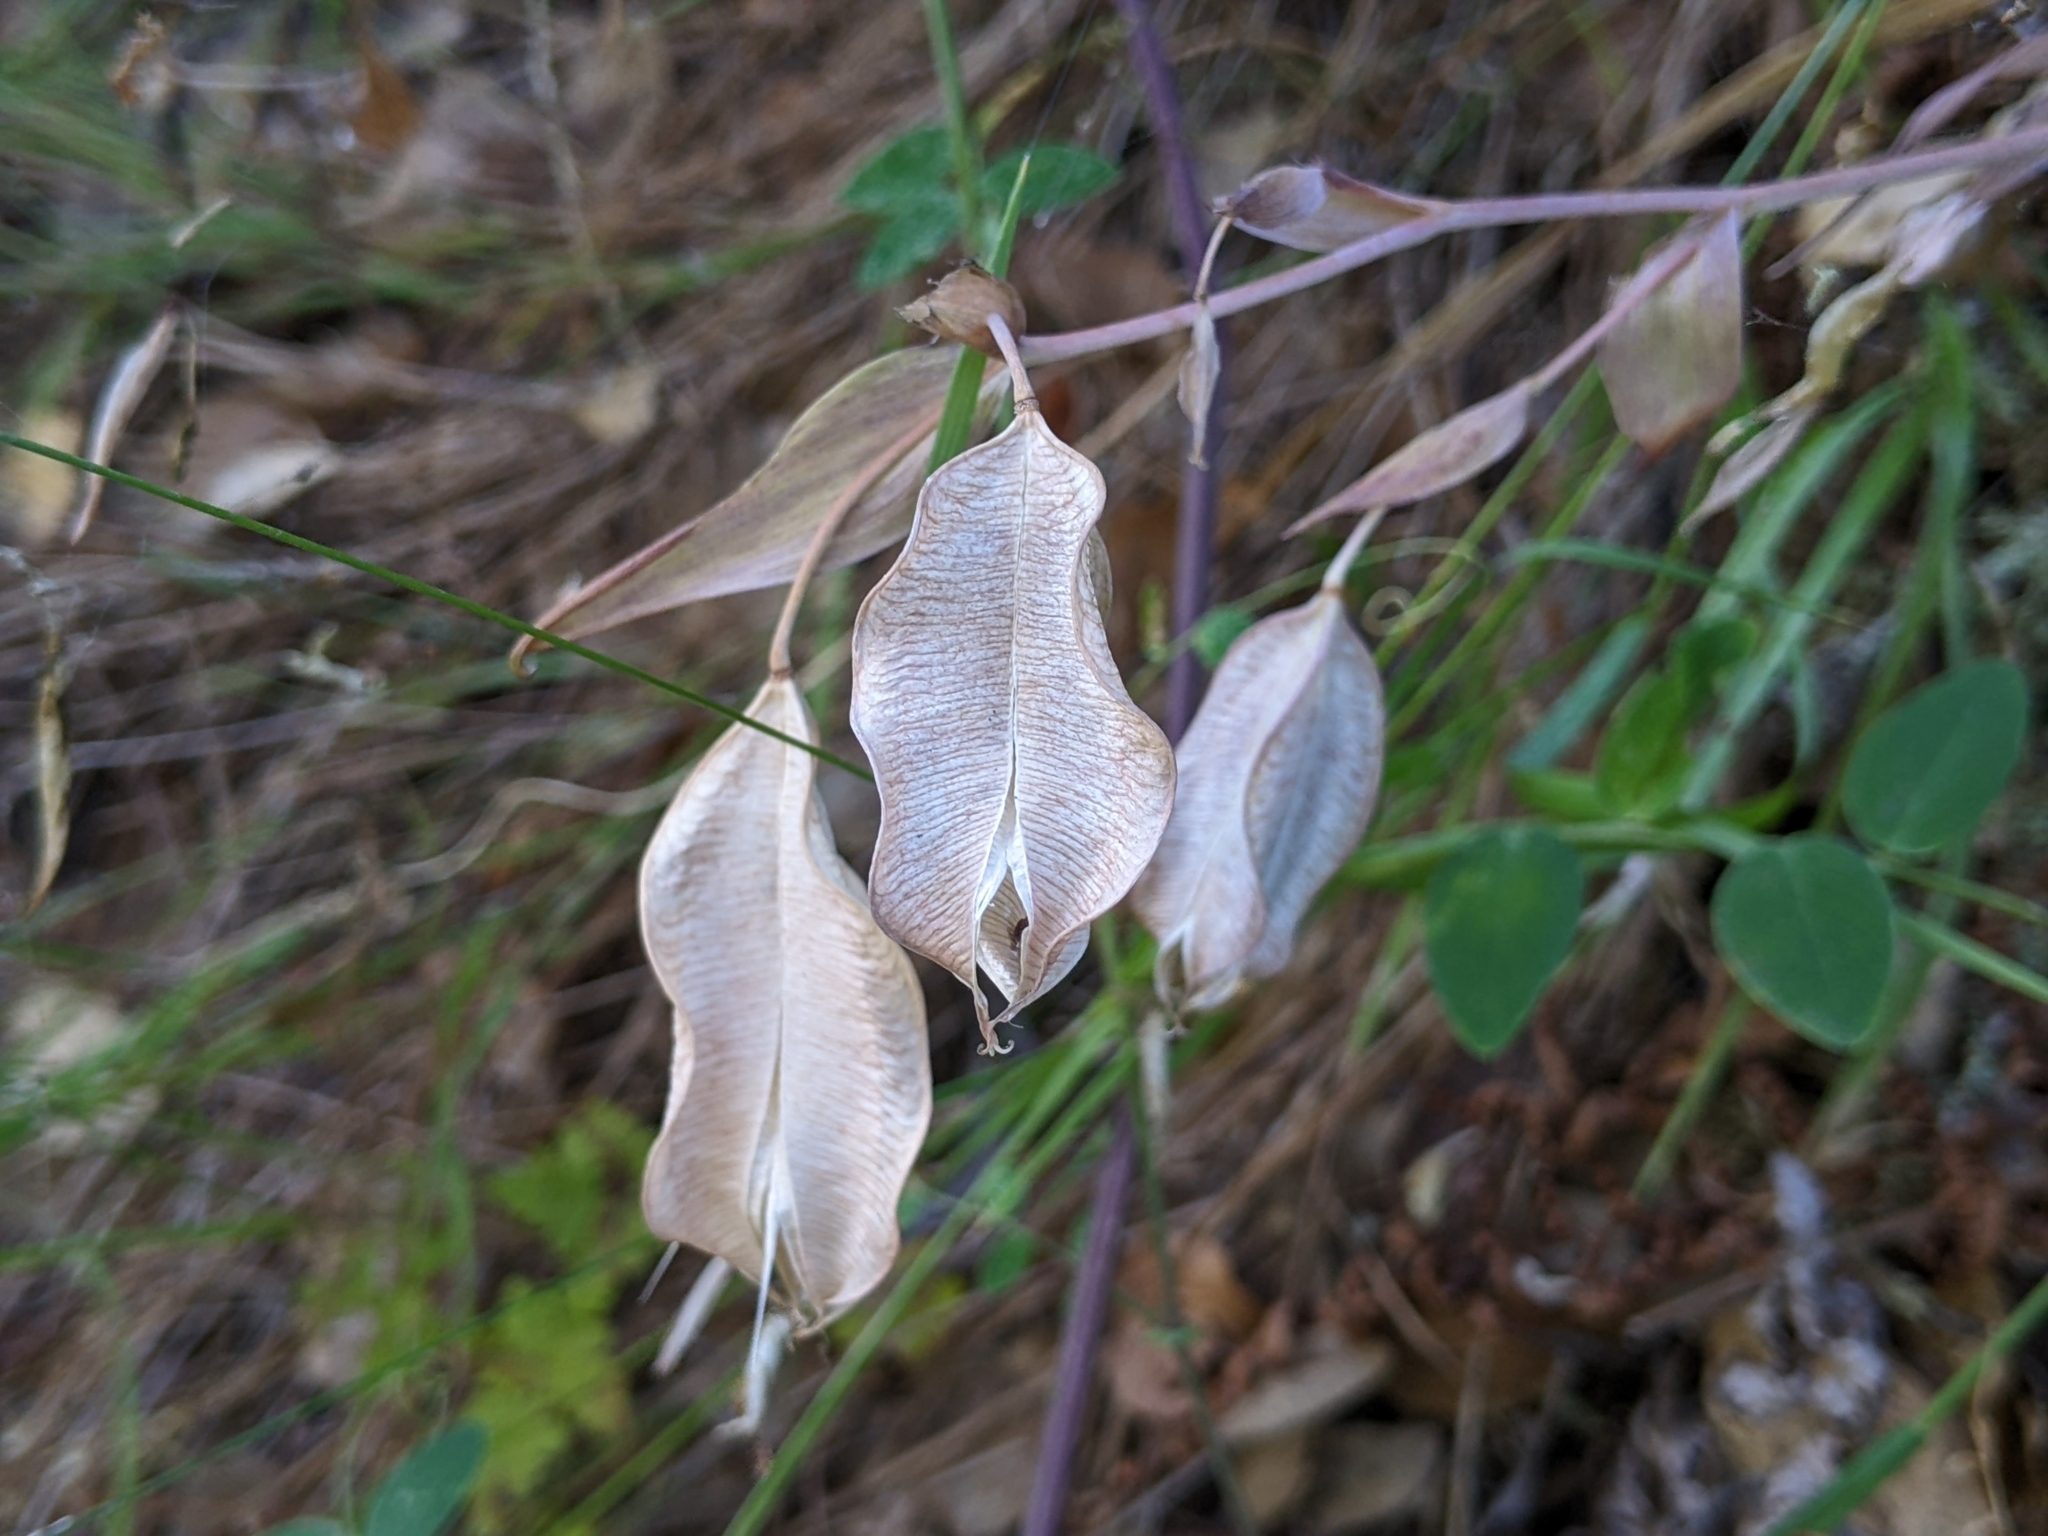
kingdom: Plantae
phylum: Tracheophyta
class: Liliopsida
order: Liliales
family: Liliaceae
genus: Calochortus
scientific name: Calochortus albus
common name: Fairy-lantern
